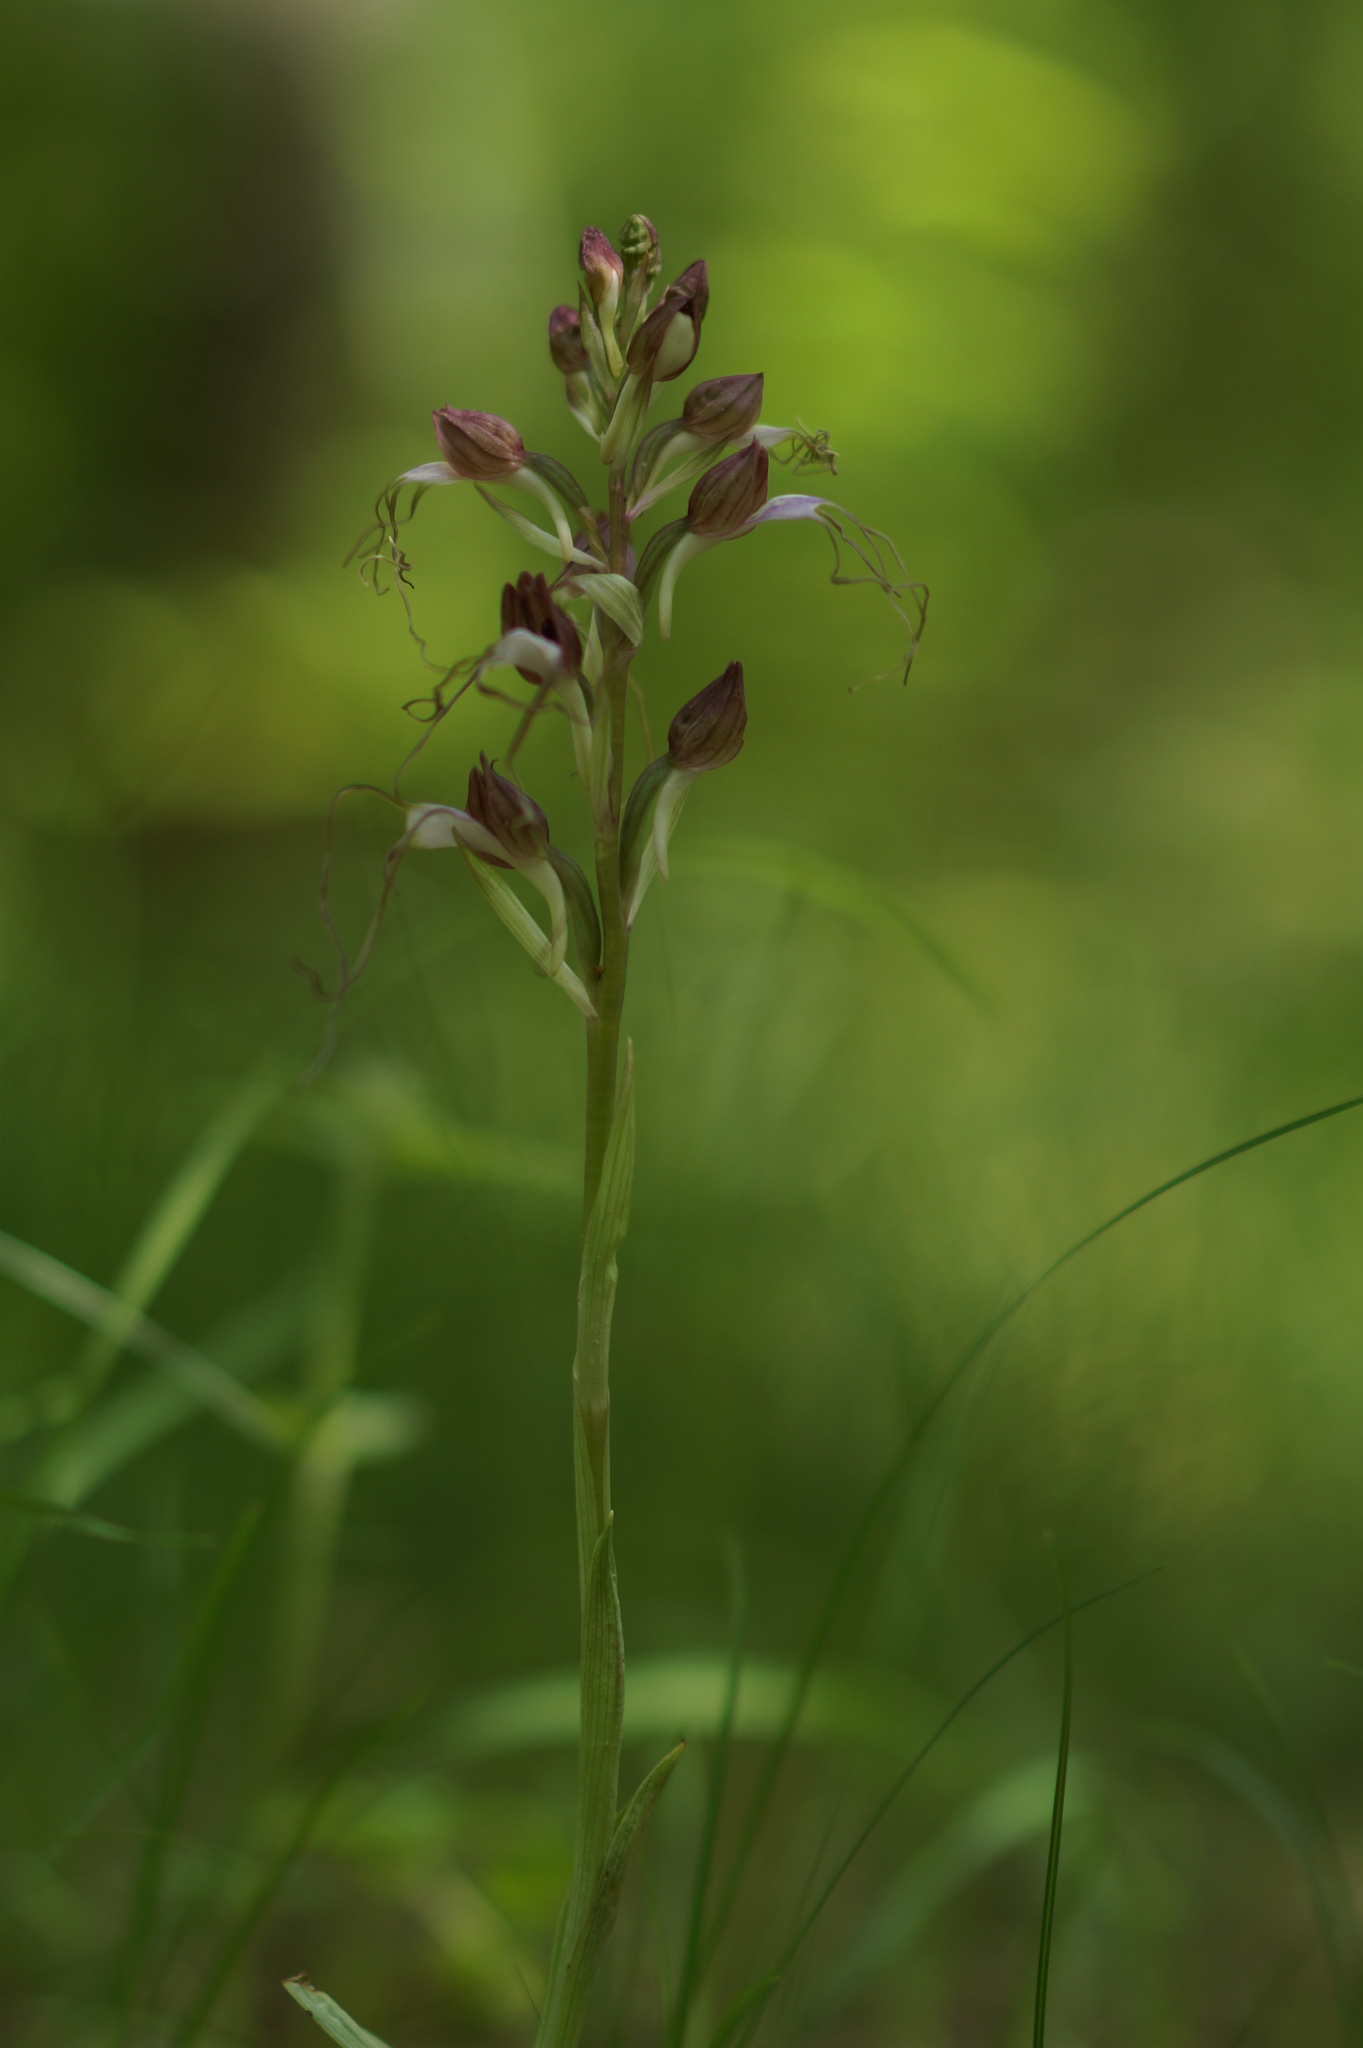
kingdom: Plantae
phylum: Tracheophyta
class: Liliopsida
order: Asparagales
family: Orchidaceae
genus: Himantoglossum
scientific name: Himantoglossum comperianum
